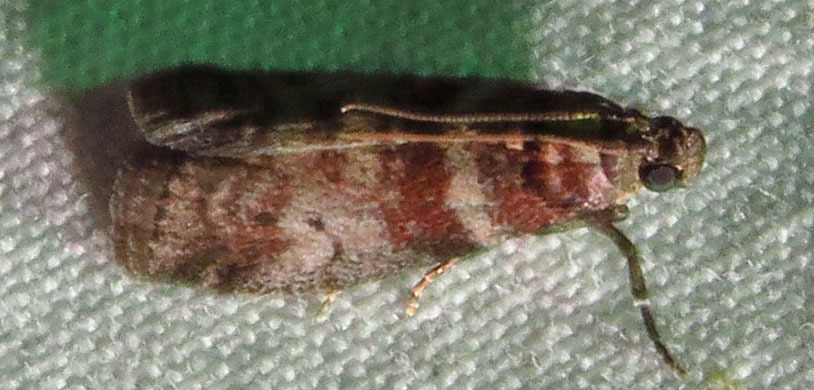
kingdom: Animalia
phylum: Arthropoda
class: Insecta
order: Lepidoptera
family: Pyralidae
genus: Sciota
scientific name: Sciota uvinella
